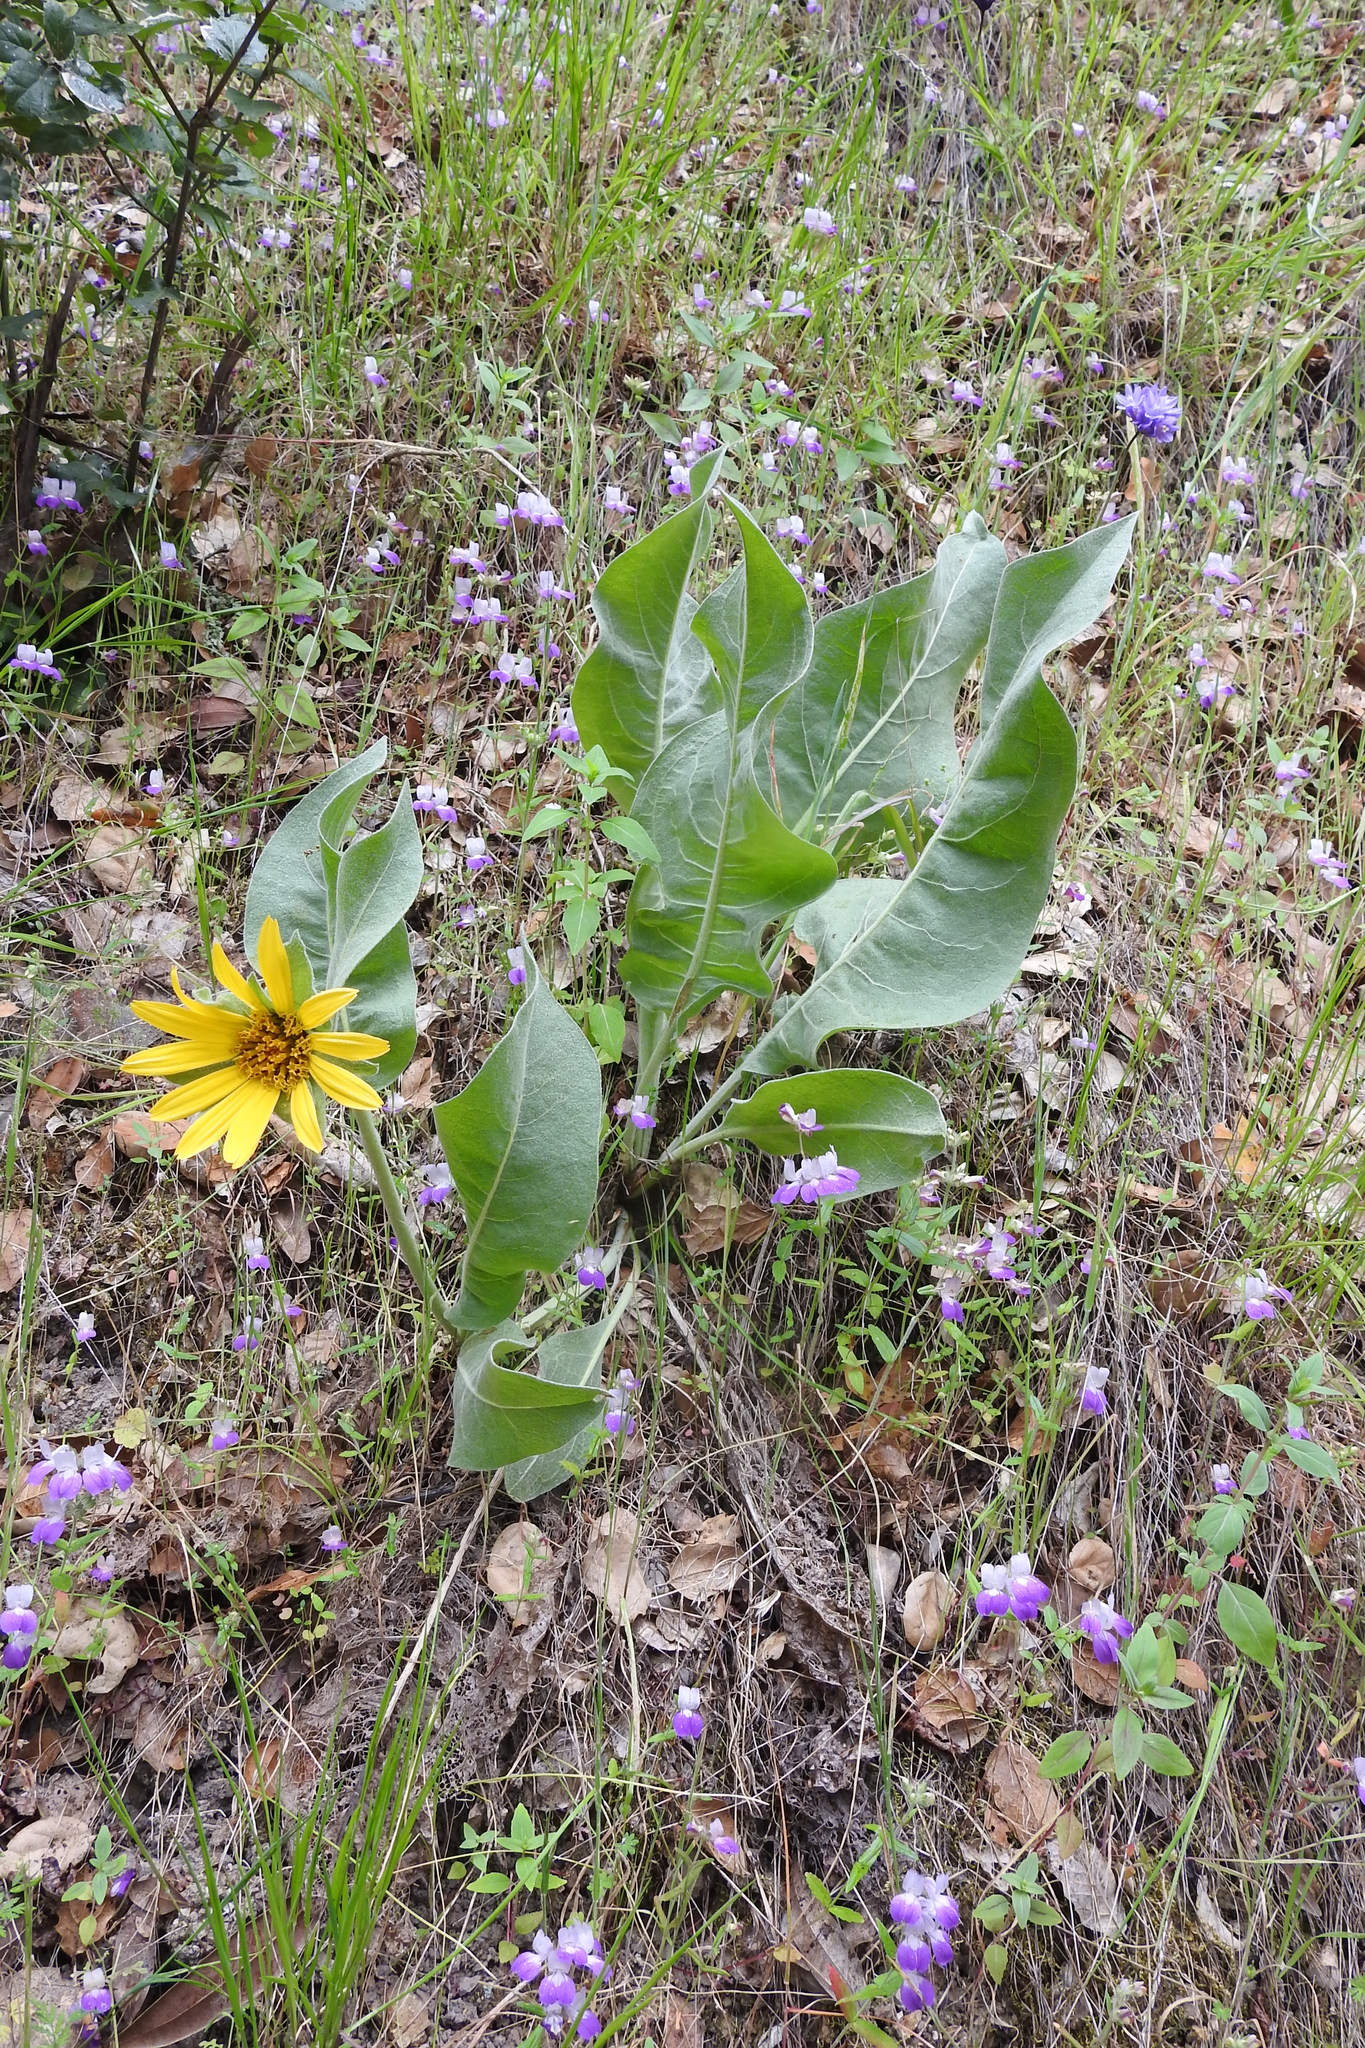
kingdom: Plantae
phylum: Tracheophyta
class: Magnoliopsida
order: Asterales
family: Asteraceae
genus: Wyethia
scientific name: Wyethia helenioides
